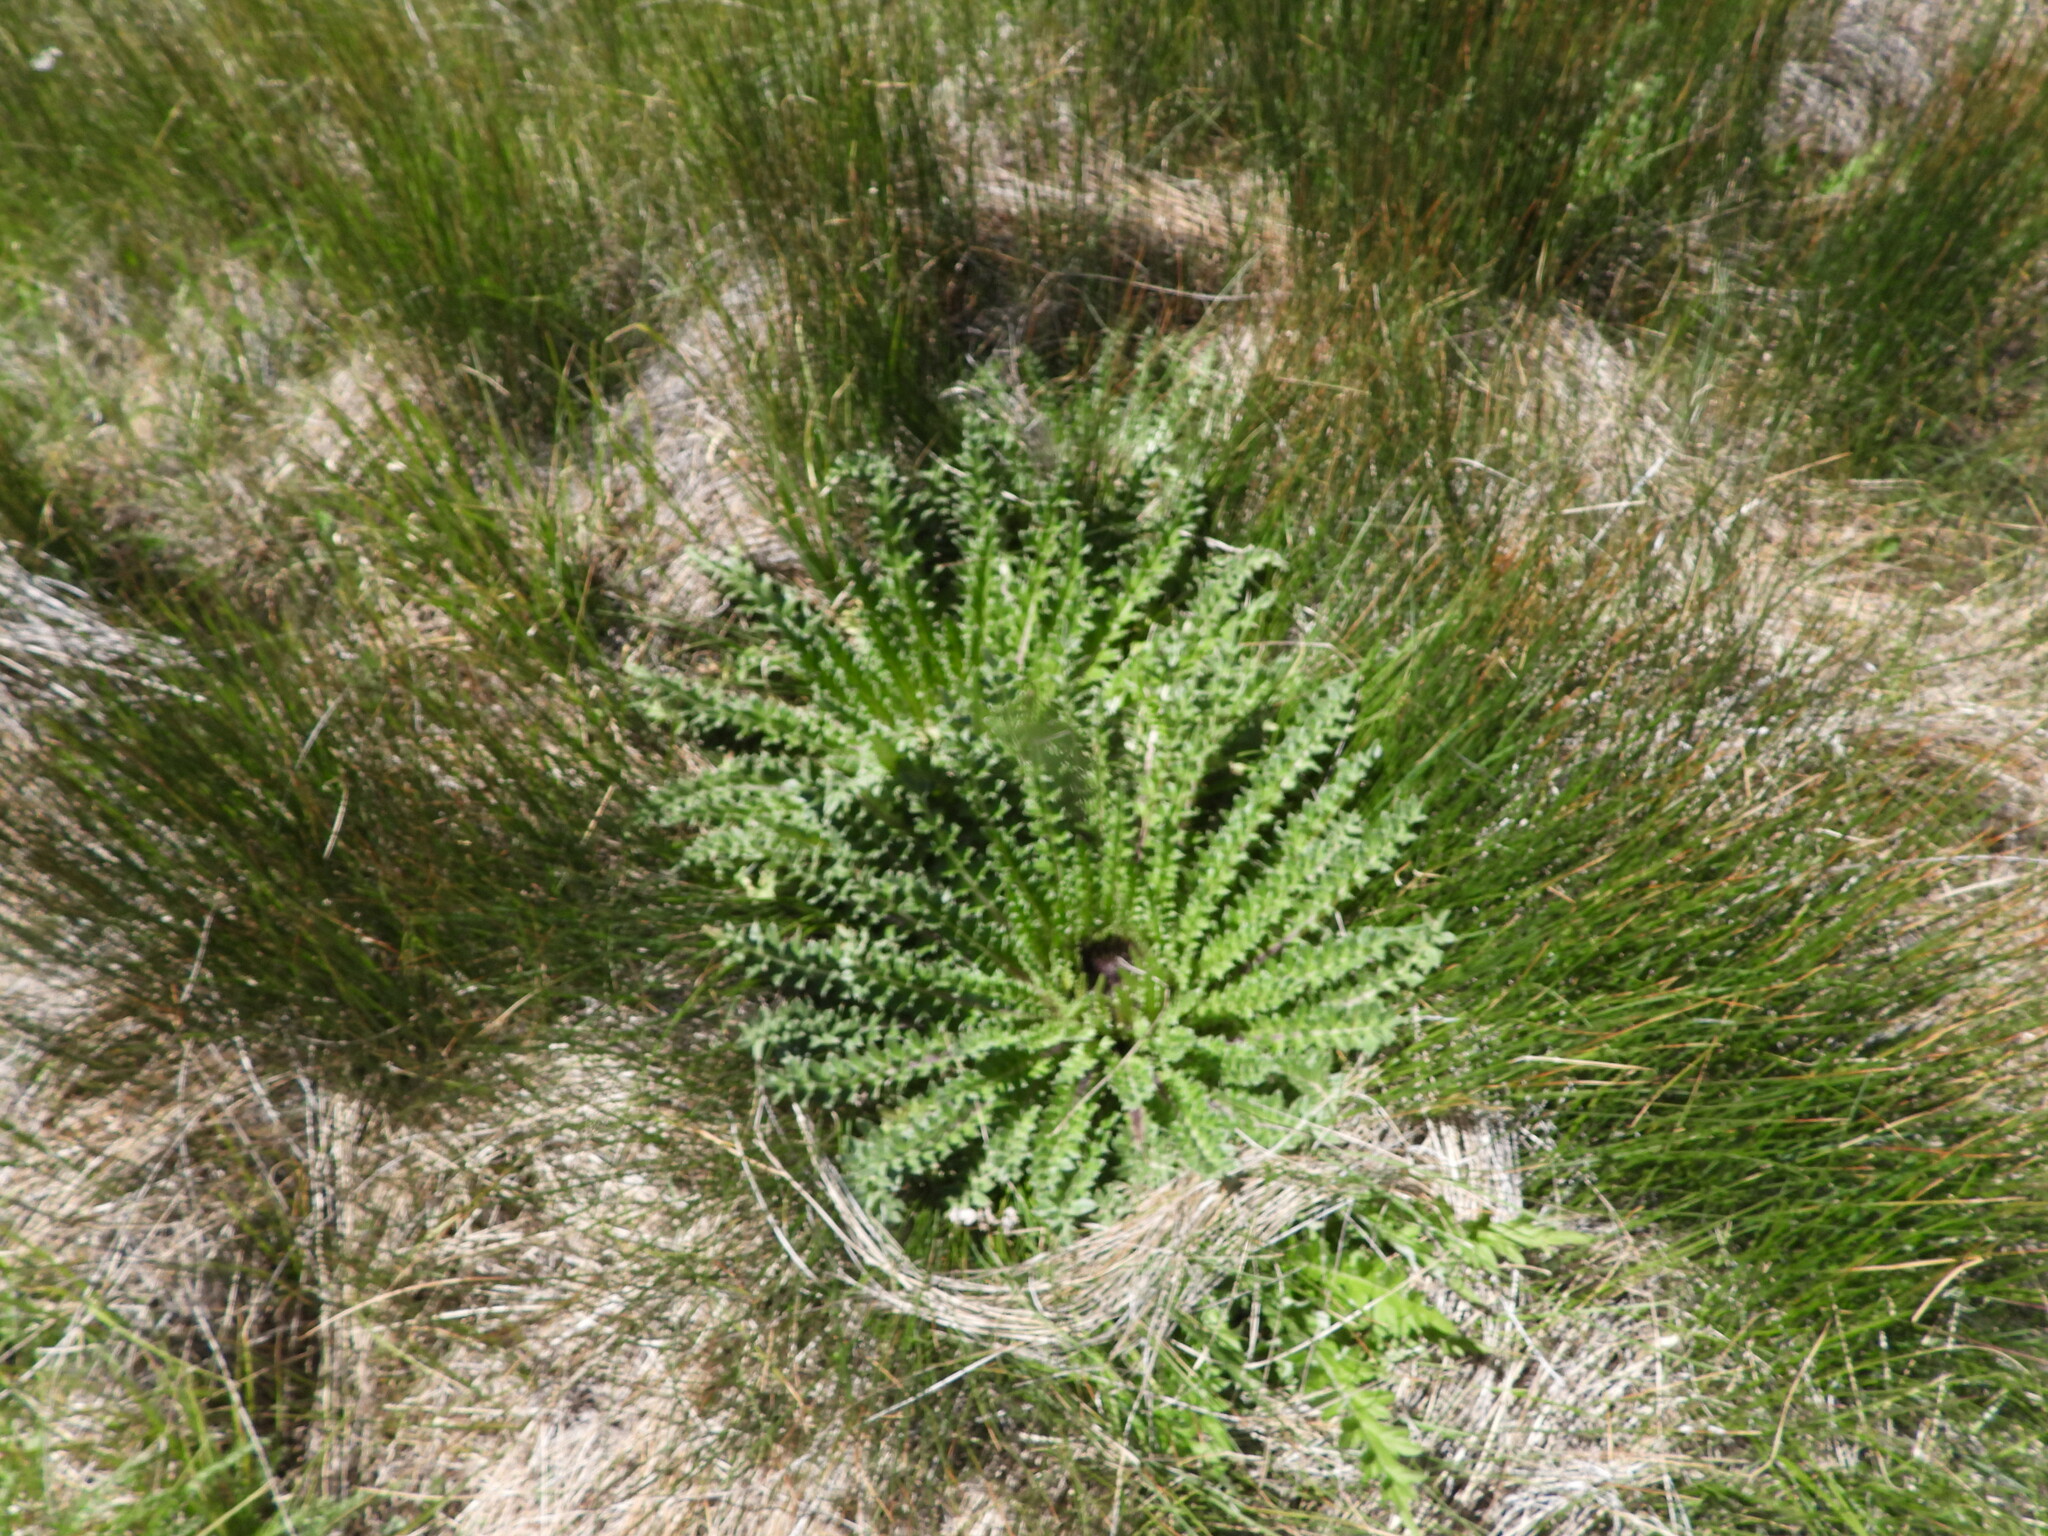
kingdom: Plantae
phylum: Tracheophyta
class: Magnoliopsida
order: Asterales
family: Asteraceae
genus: Cirsium
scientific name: Cirsium tioganum
